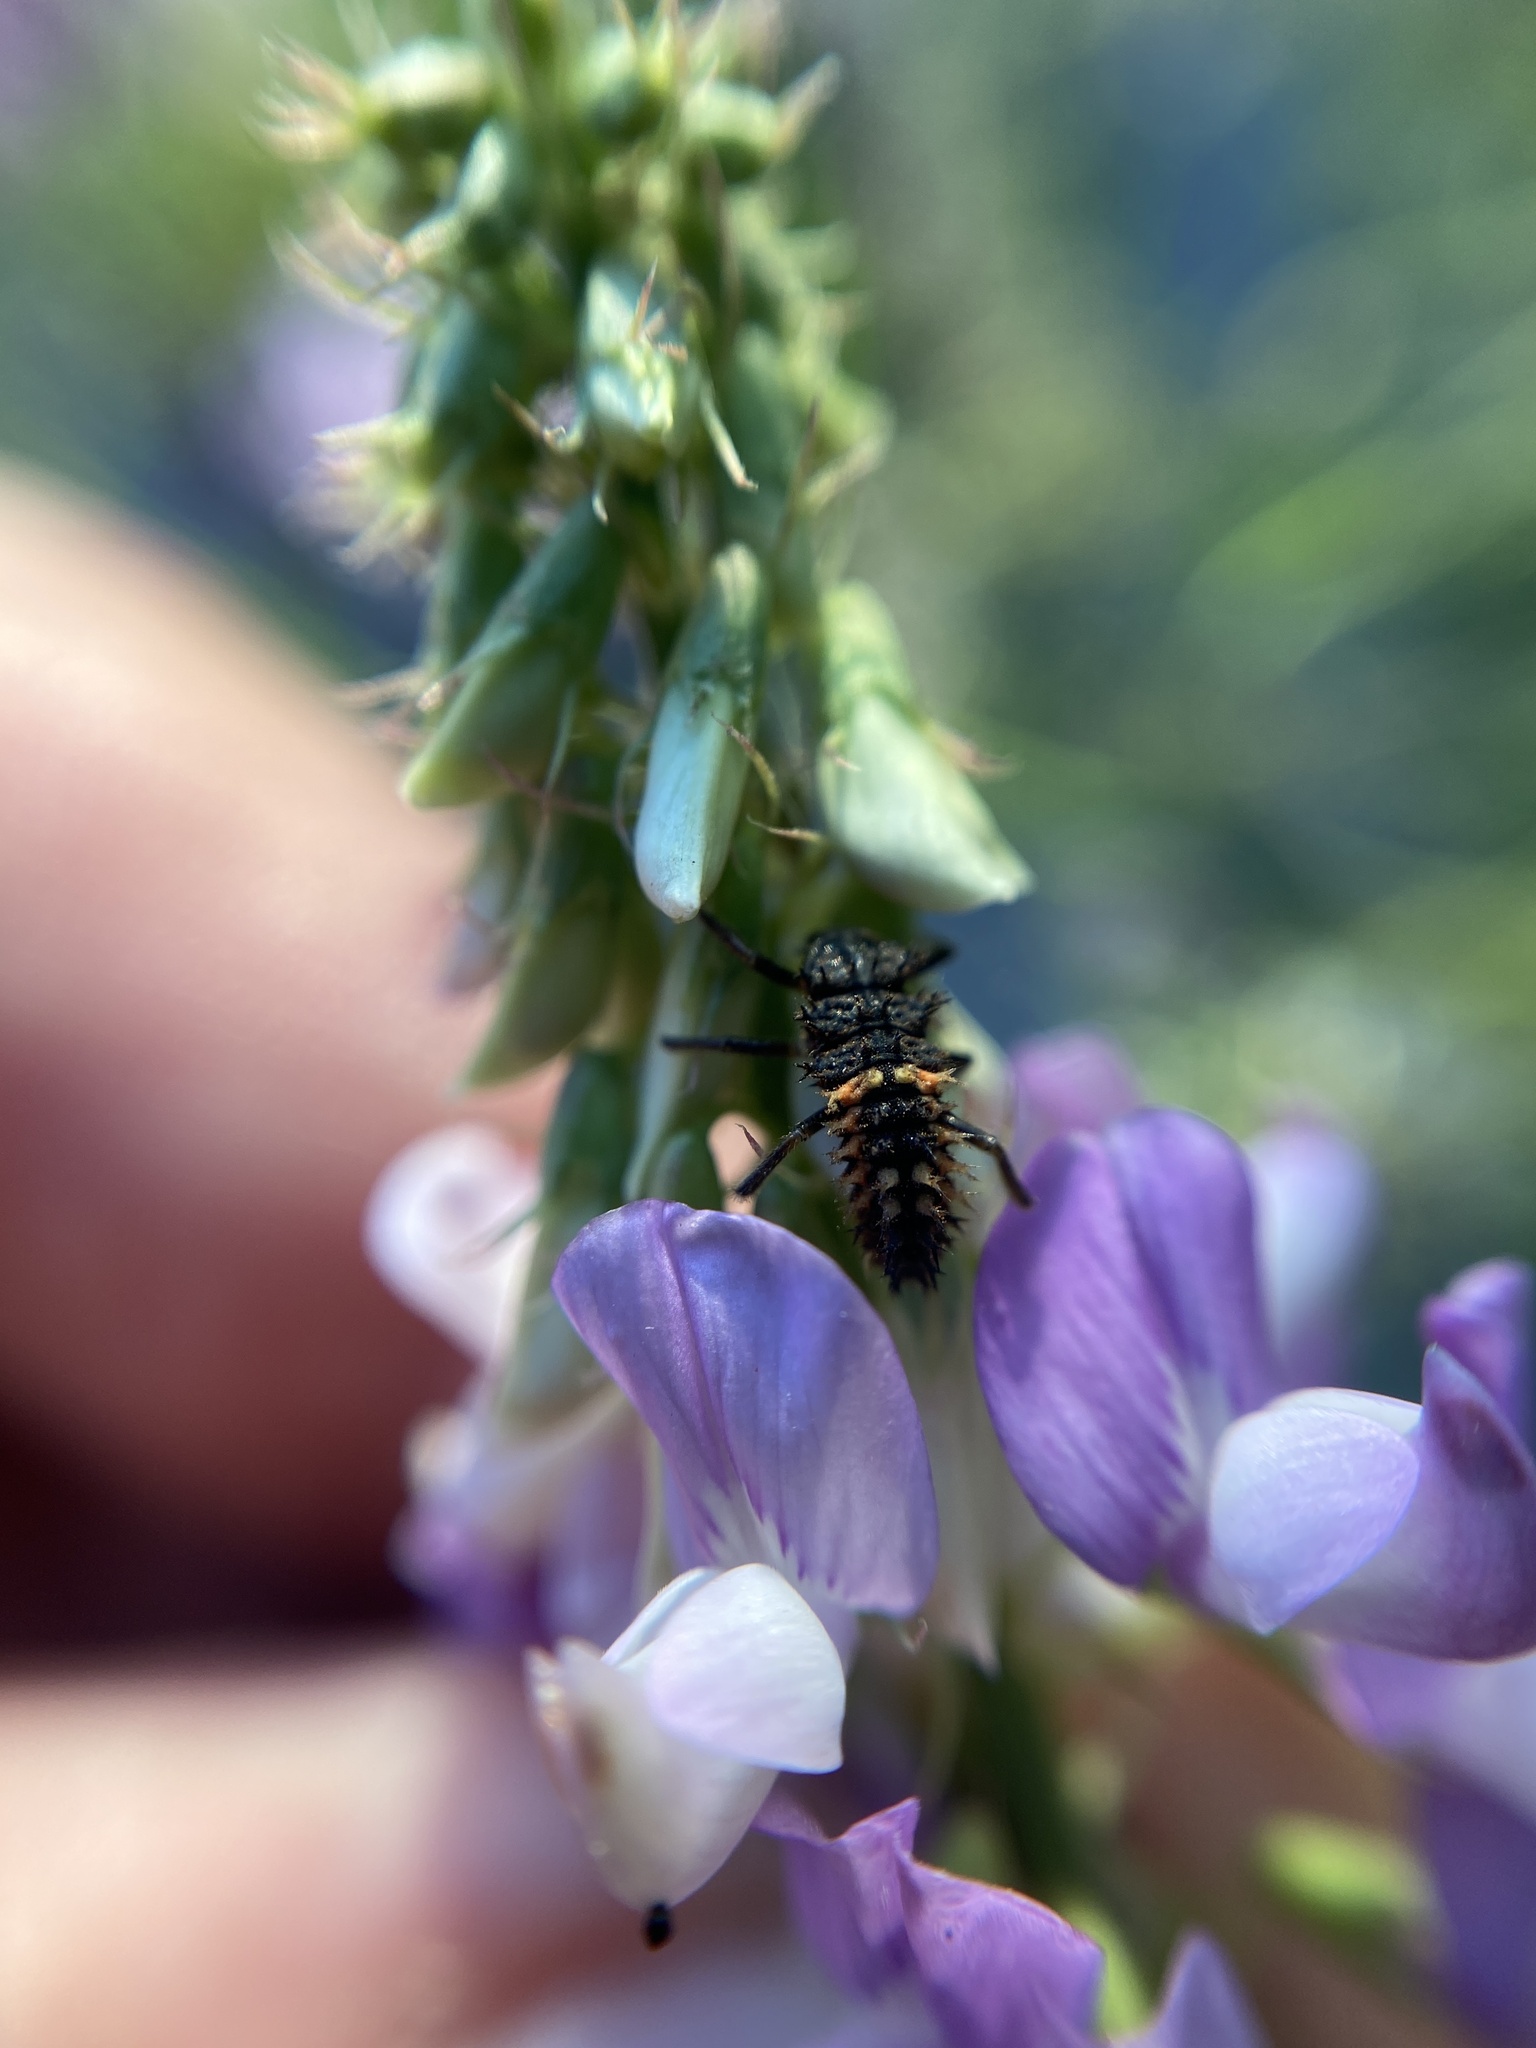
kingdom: Animalia
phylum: Arthropoda
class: Insecta
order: Coleoptera
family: Coccinellidae
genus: Harmonia
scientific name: Harmonia axyridis
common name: Harlequin ladybird
